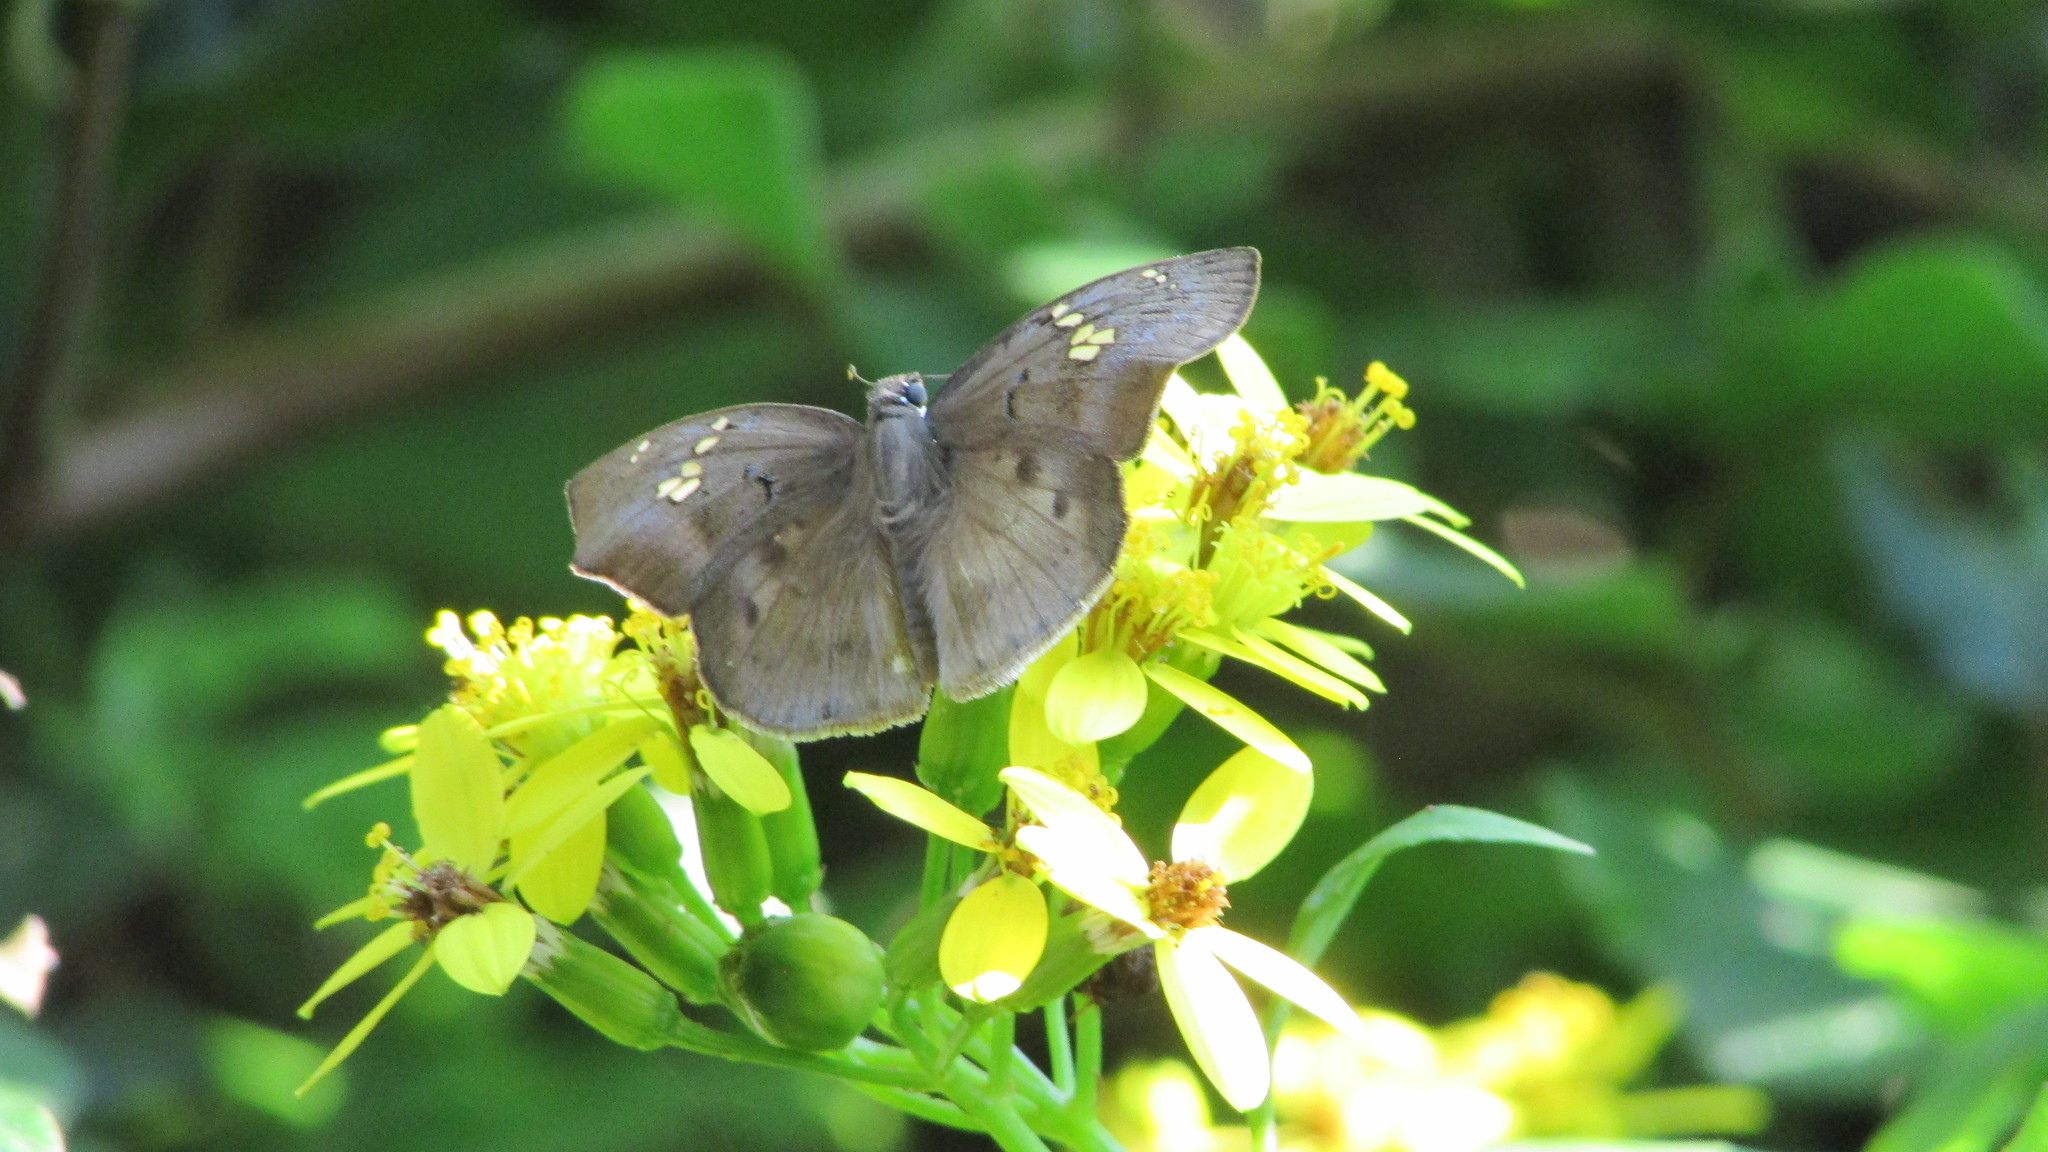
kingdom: Animalia
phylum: Arthropoda
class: Insecta
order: Lepidoptera
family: Hesperiidae
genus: Tagiades
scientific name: Tagiades flesus
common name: Clouded flat
